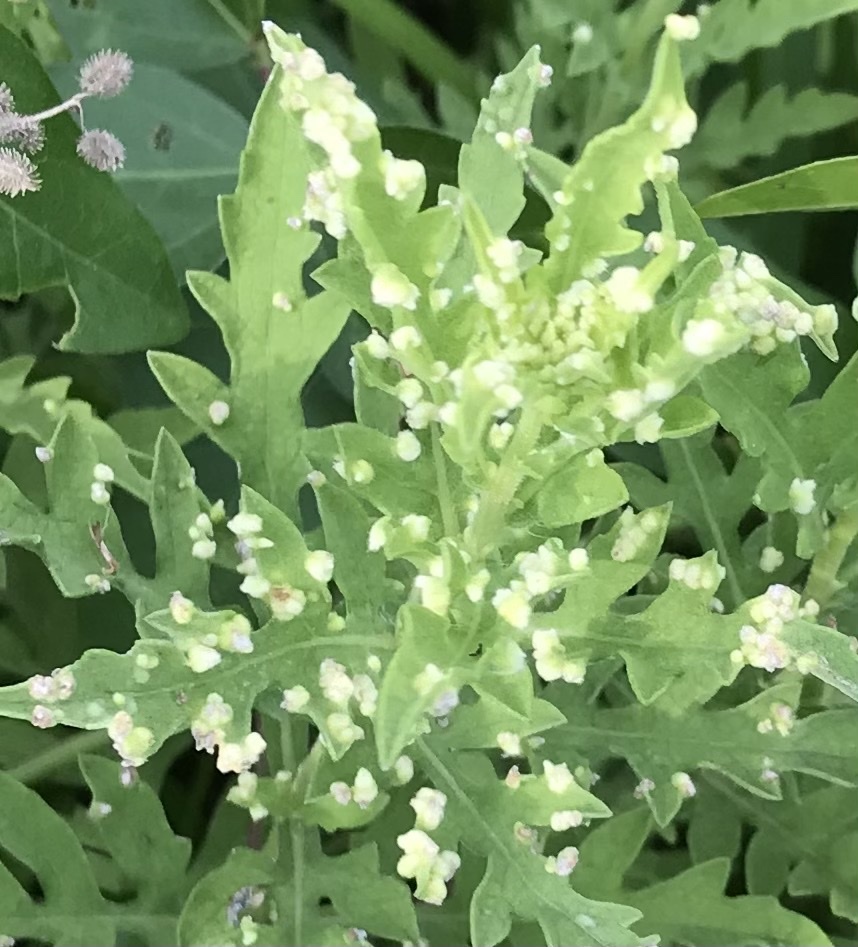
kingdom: Animalia
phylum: Arthropoda
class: Arachnida
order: Trombidiformes
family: Eriophyidae
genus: Aceria
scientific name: Aceria
